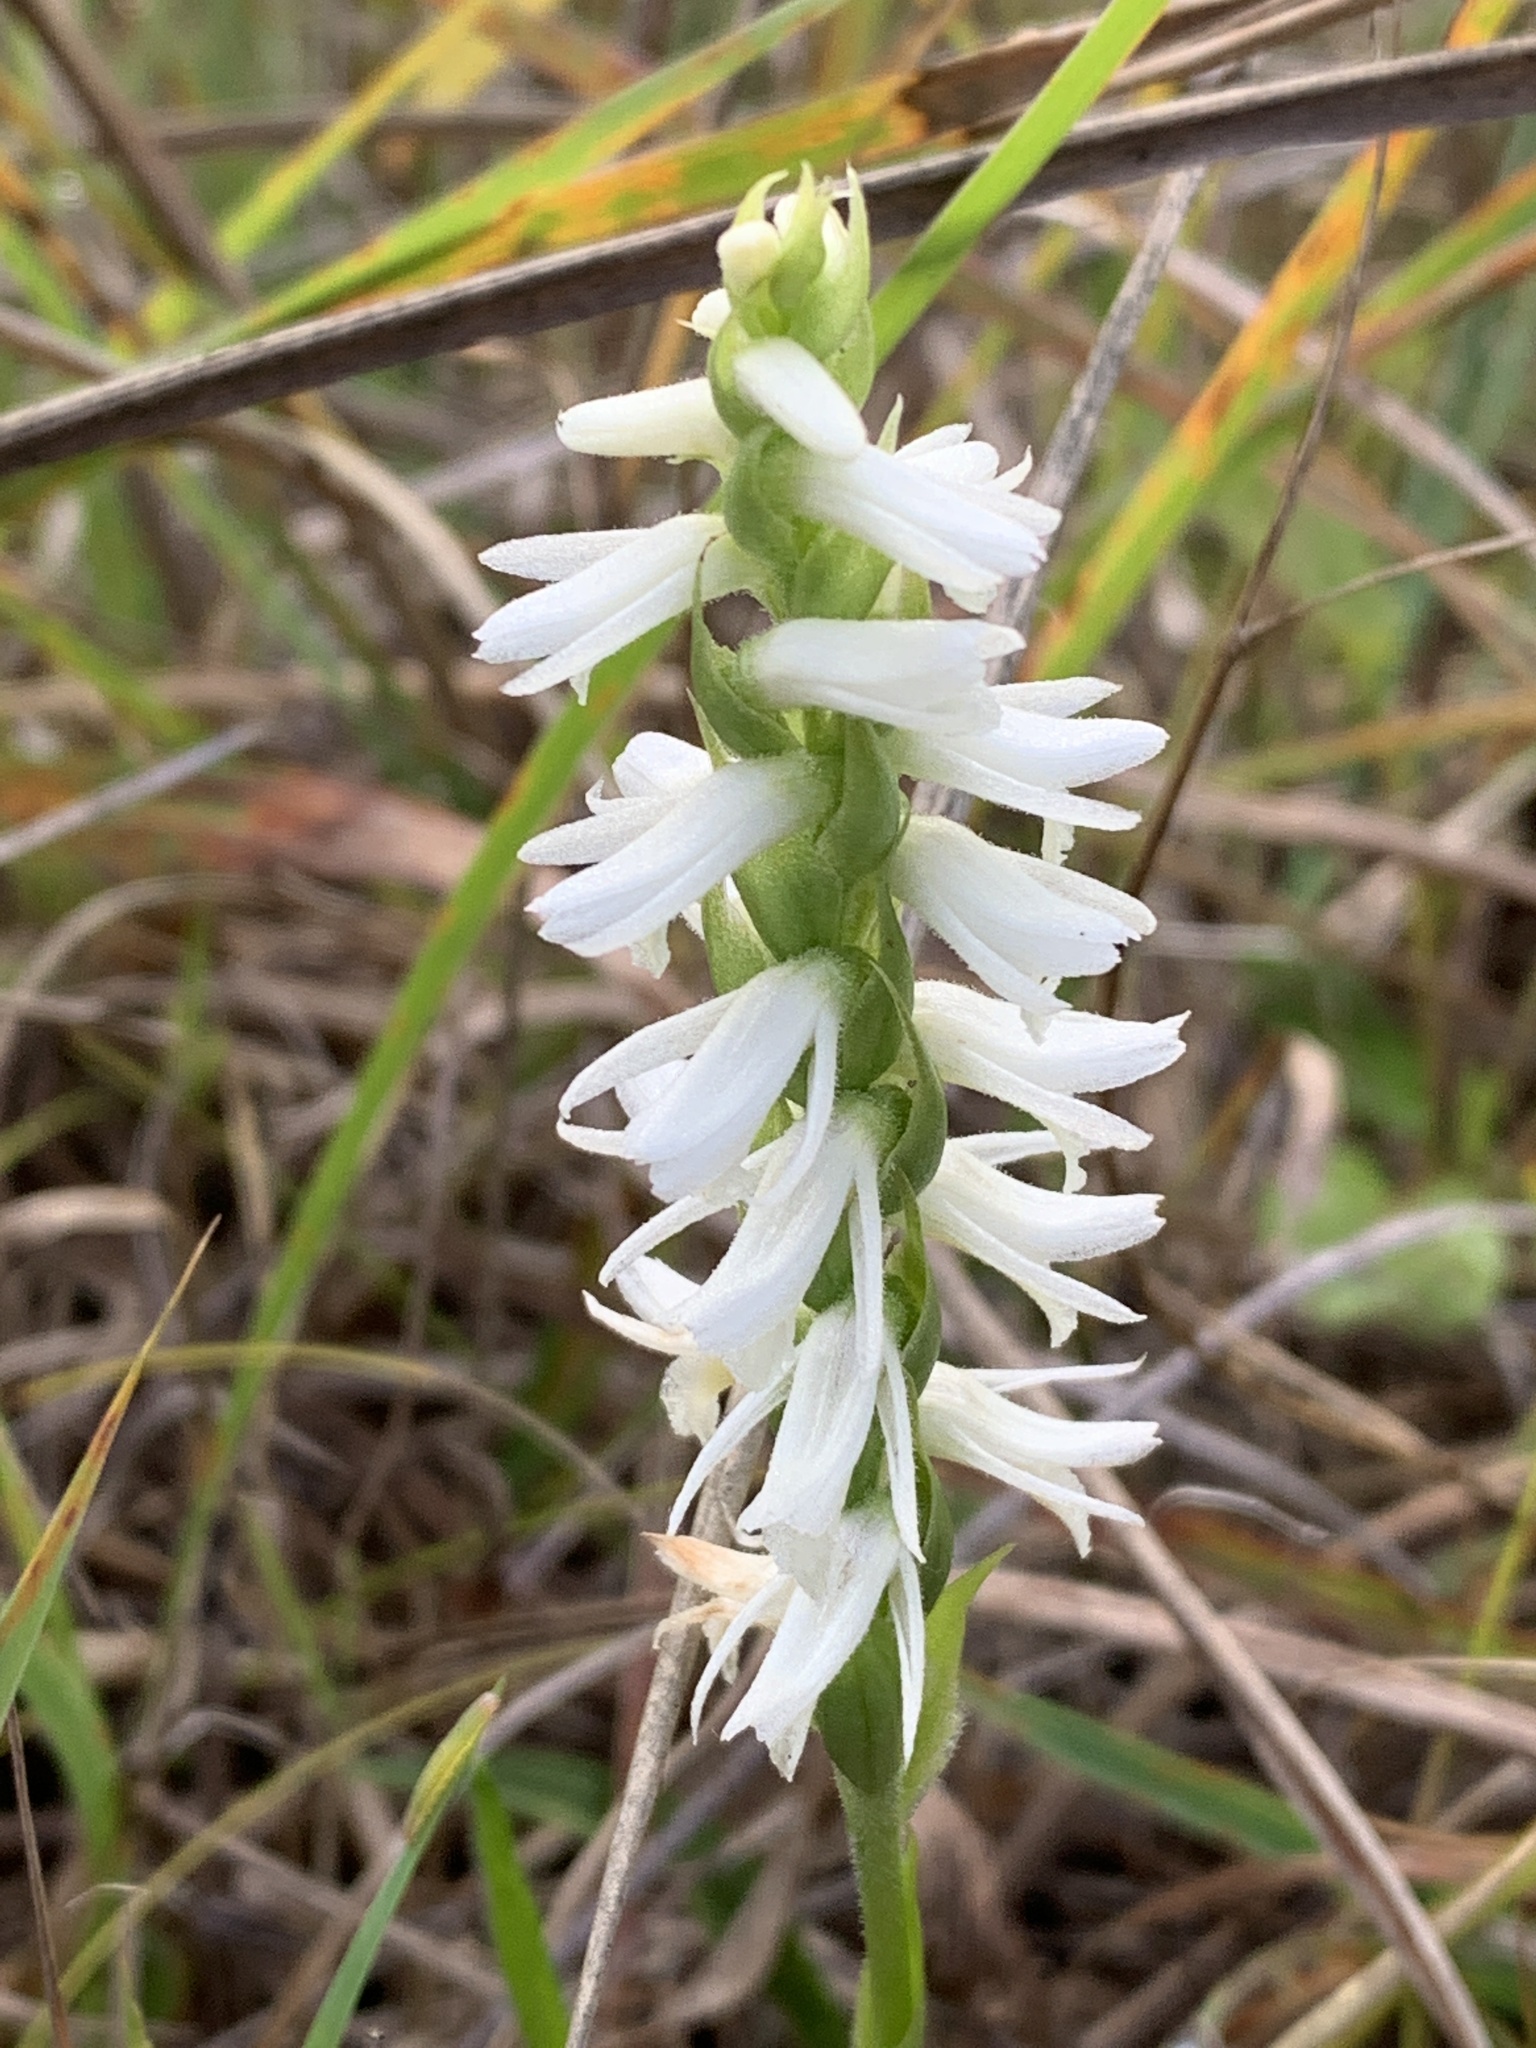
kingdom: Plantae
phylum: Tracheophyta
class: Liliopsida
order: Asparagales
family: Orchidaceae
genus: Spiranthes
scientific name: Spiranthes magnicamporum
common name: Great plains ladies'-tresses
